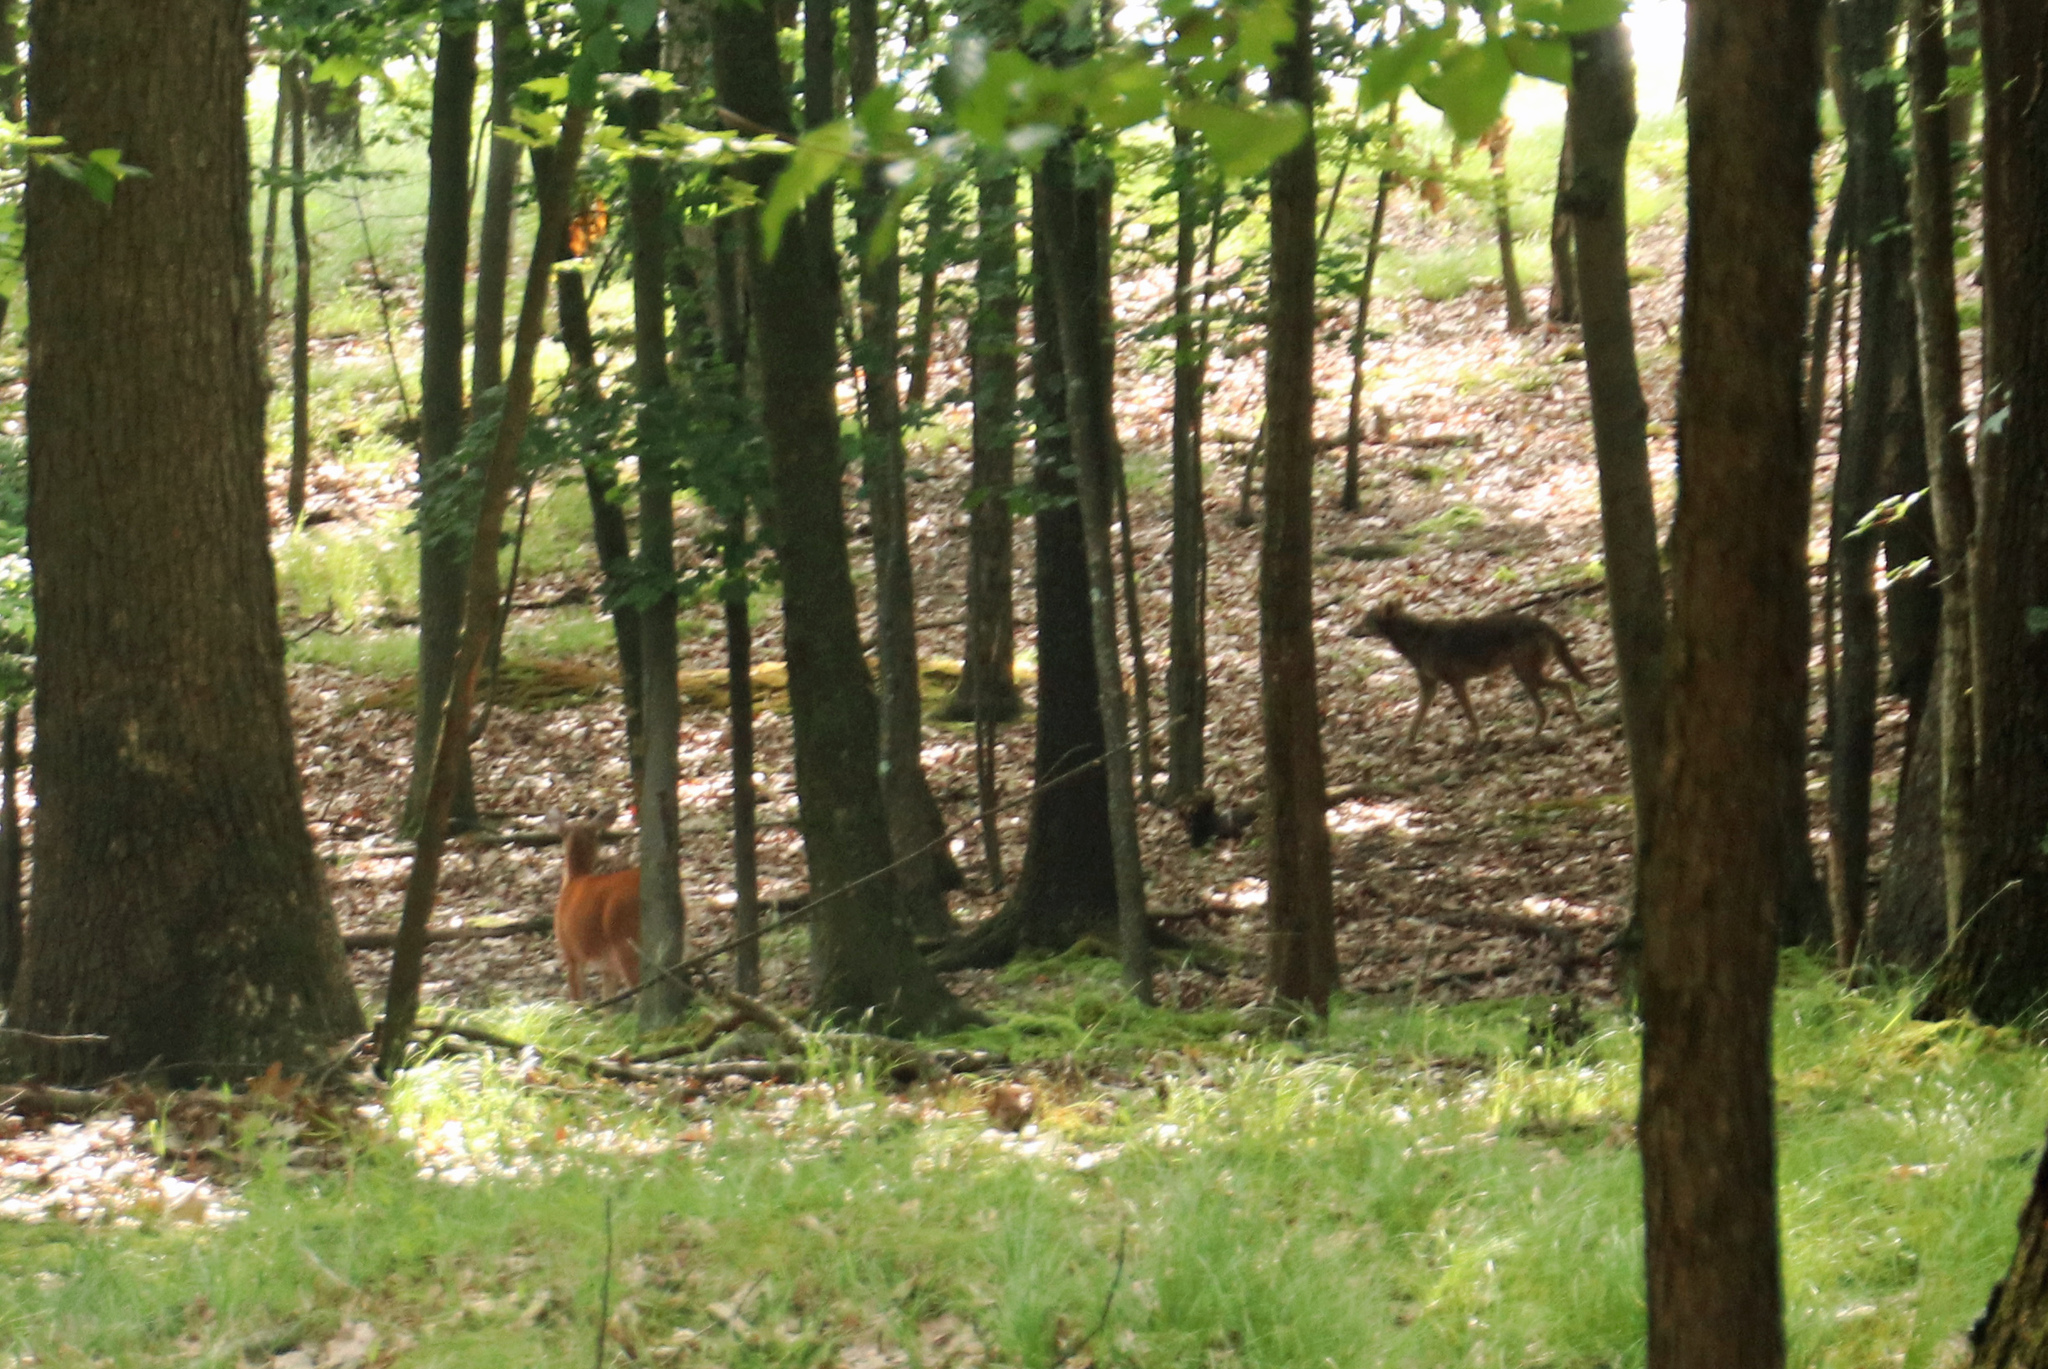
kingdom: Animalia
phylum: Chordata
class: Mammalia
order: Carnivora
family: Canidae
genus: Canis
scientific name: Canis latrans
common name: Coyote
